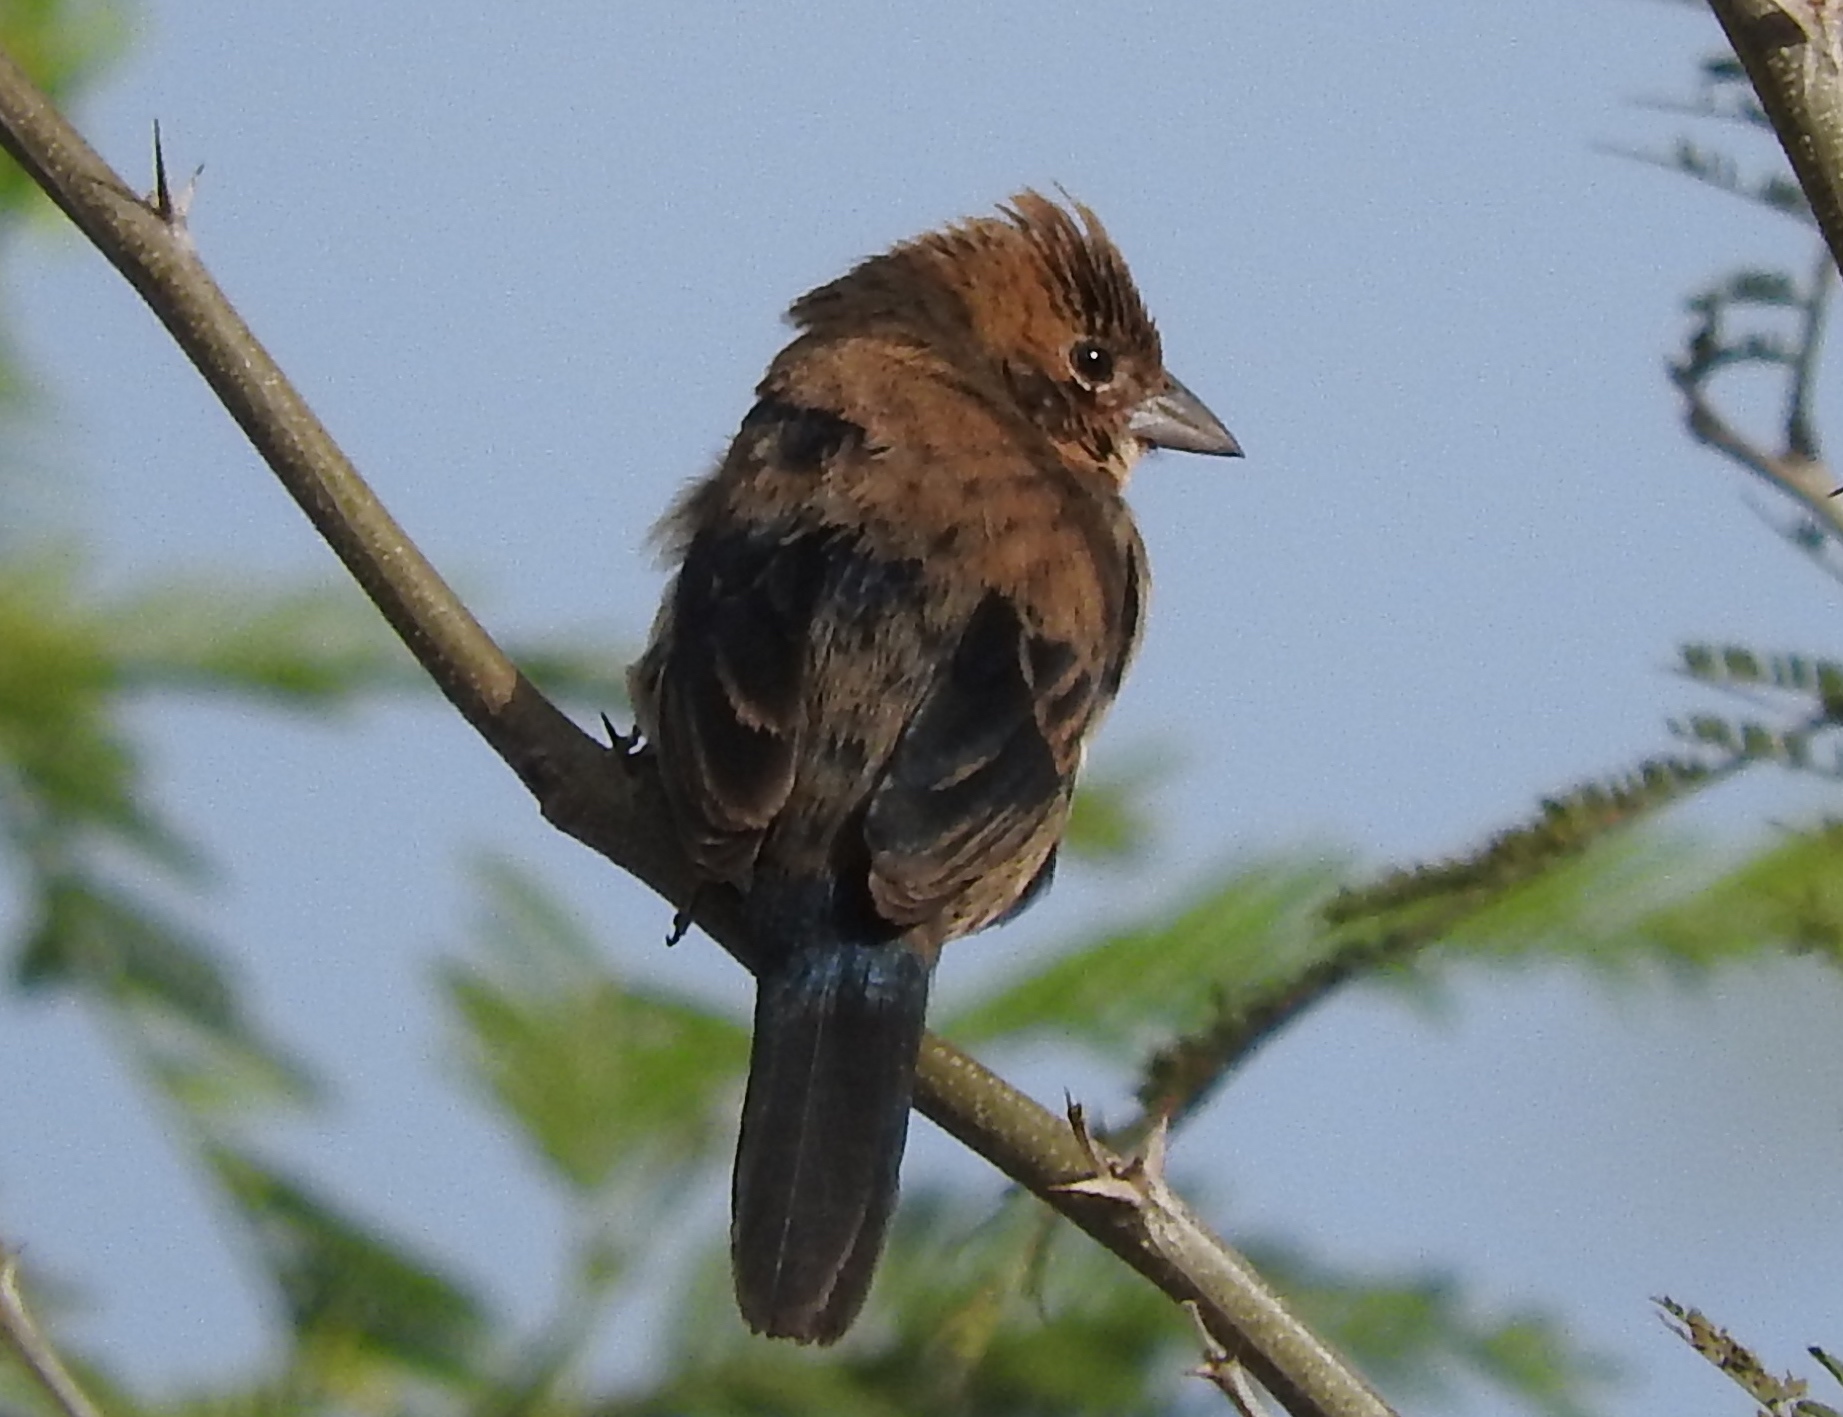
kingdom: Animalia
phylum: Chordata
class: Aves
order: Passeriformes
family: Thraupidae
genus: Volatinia
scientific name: Volatinia jacarina
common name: Blue-black grassquit
